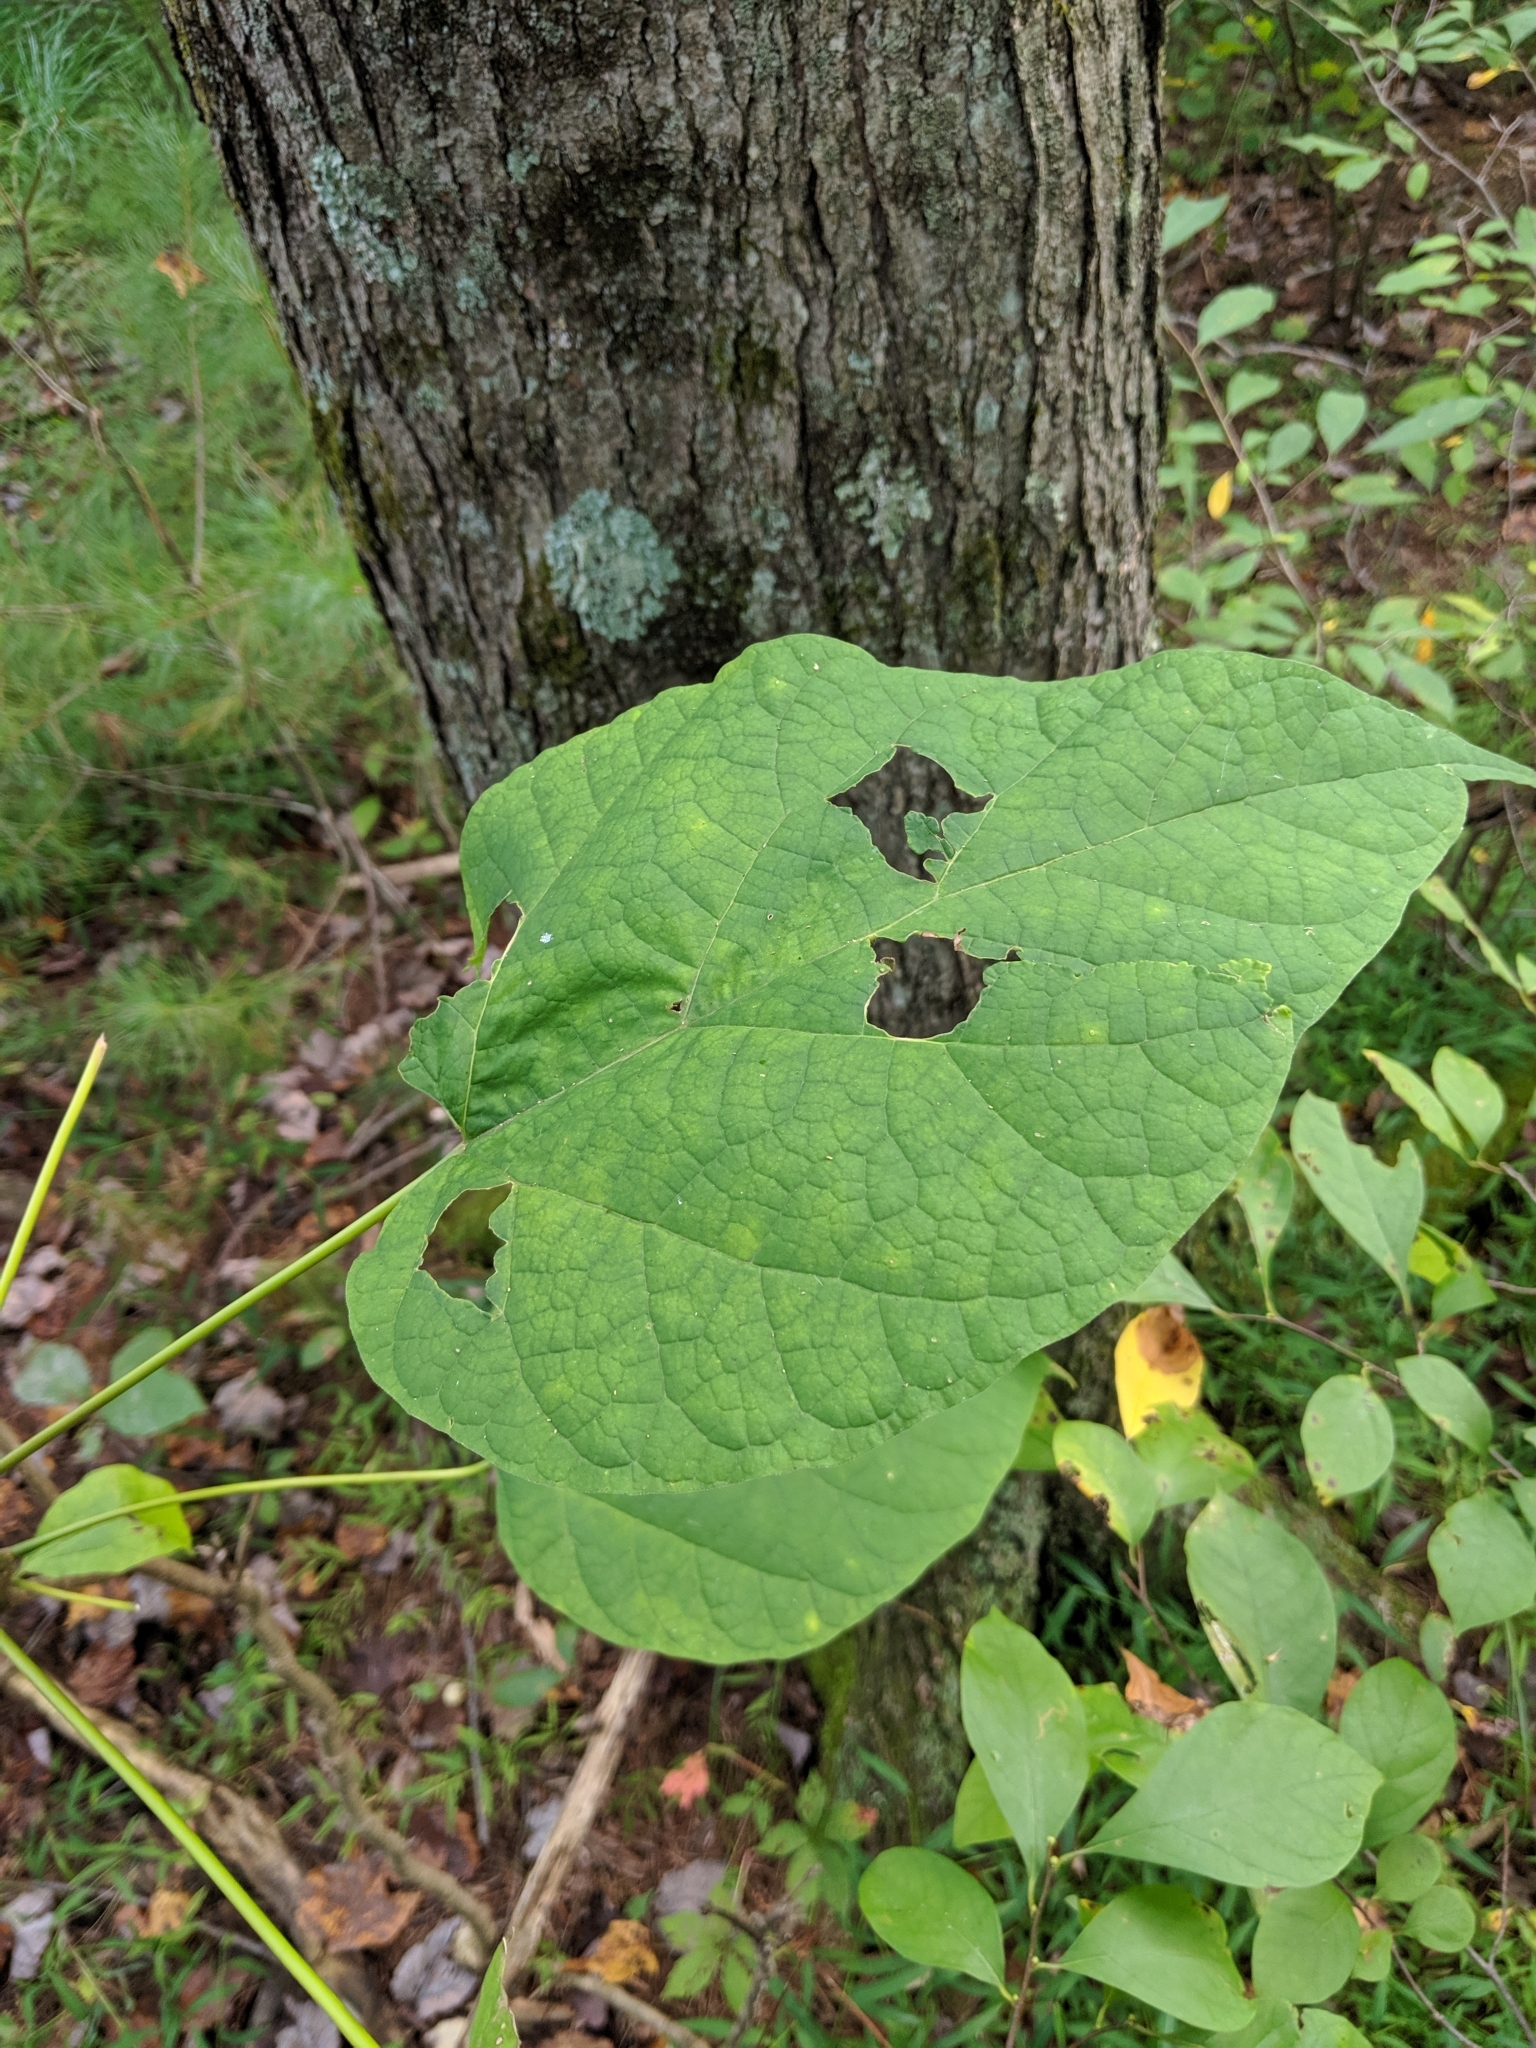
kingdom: Plantae
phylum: Tracheophyta
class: Magnoliopsida
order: Lamiales
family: Bignoniaceae
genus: Catalpa
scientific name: Catalpa speciosa
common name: Northern catalpa
